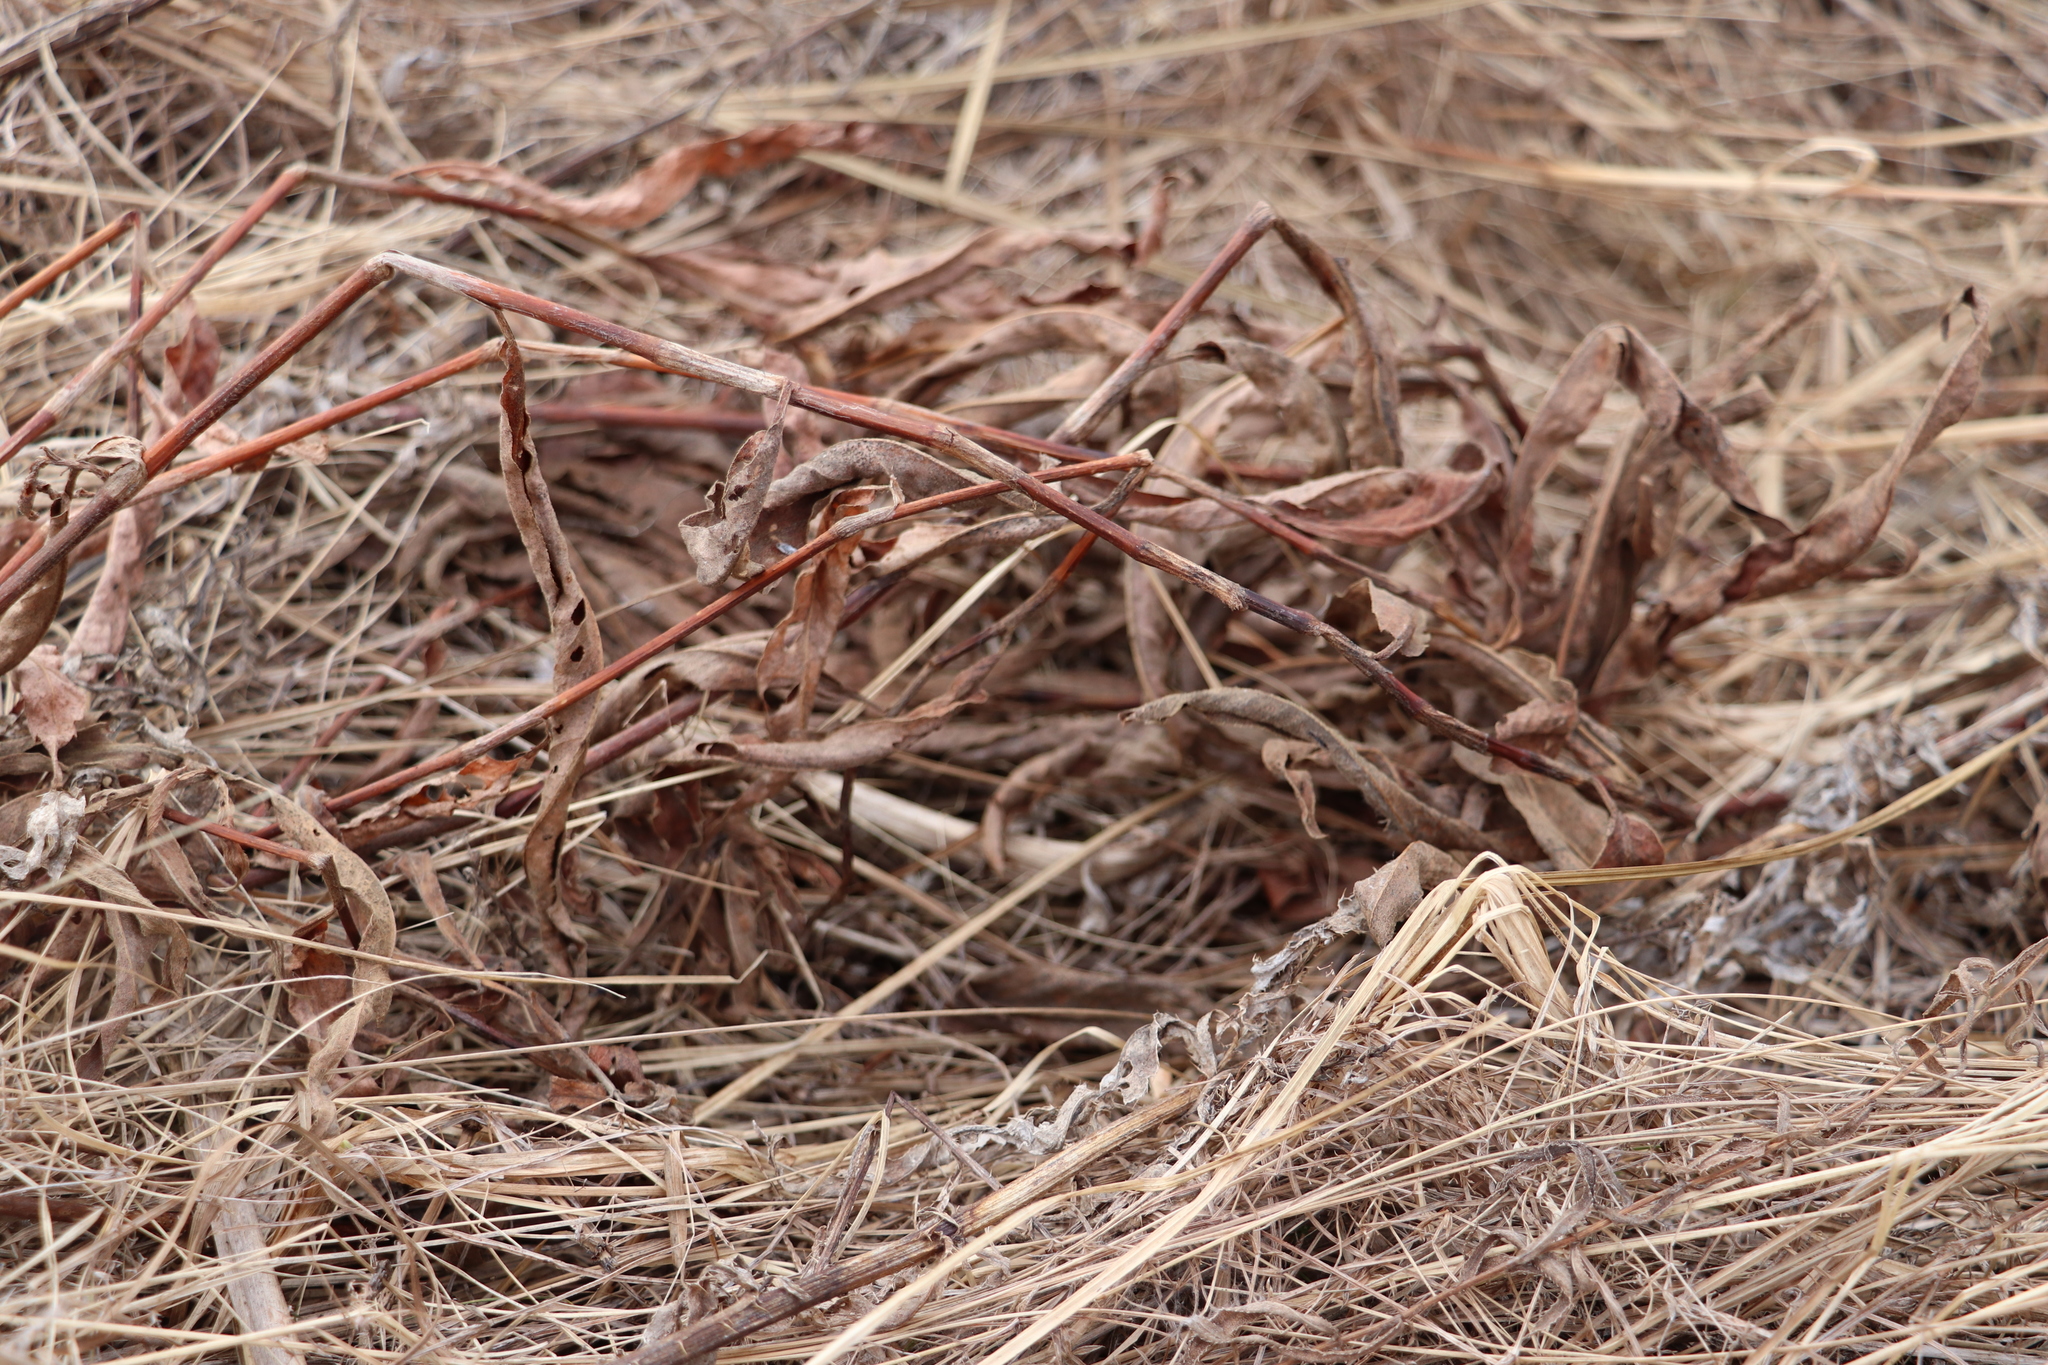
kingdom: Plantae
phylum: Tracheophyta
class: Magnoliopsida
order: Caryophyllales
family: Polygonaceae
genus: Persicaria
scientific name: Persicaria amphibia
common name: Amphibious bistort
